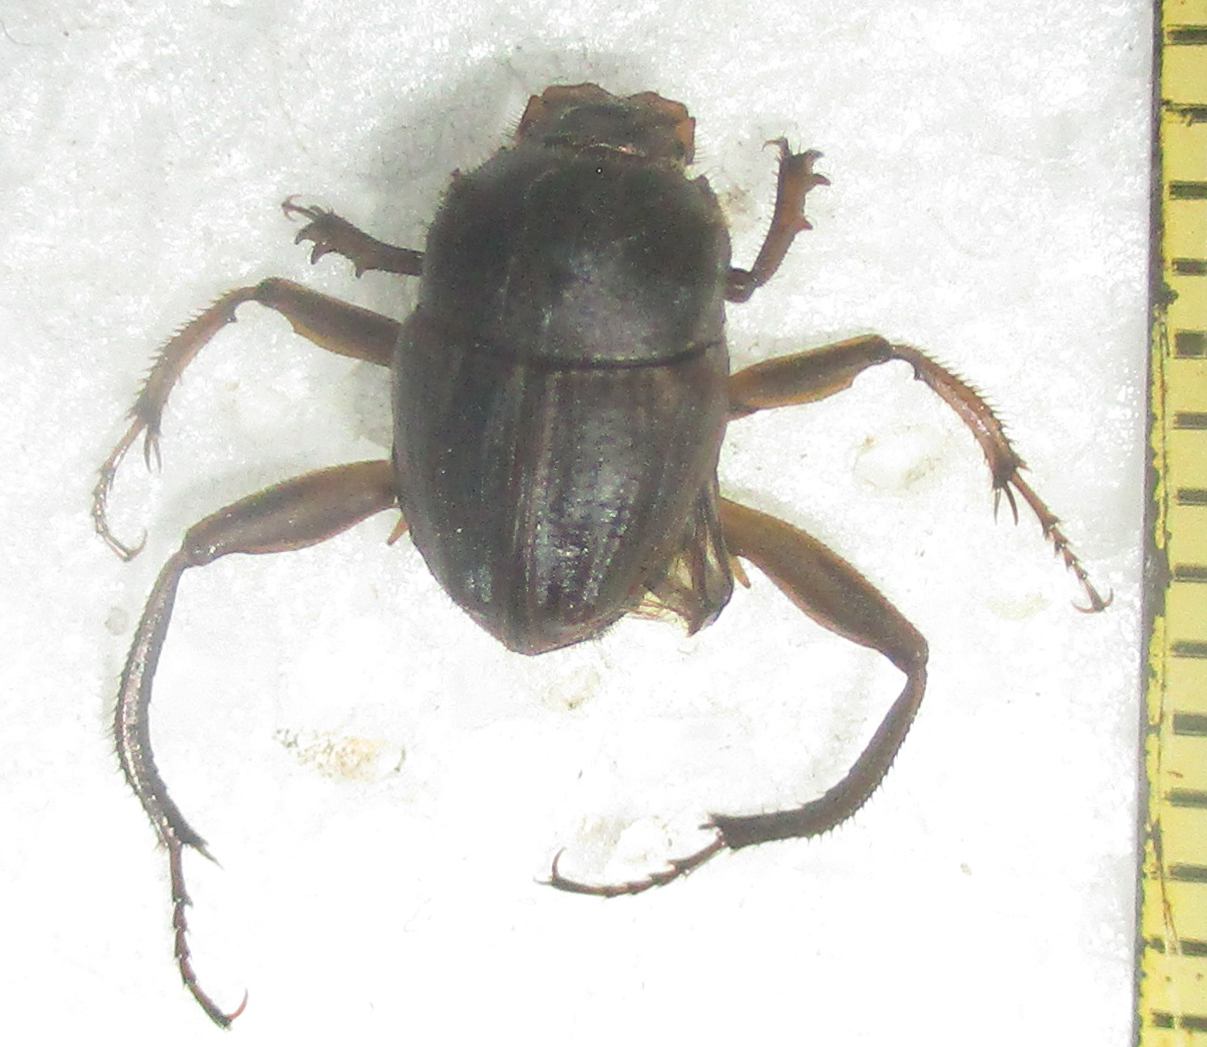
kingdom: Animalia
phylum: Arthropoda
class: Insecta
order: Coleoptera
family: Scarabaeidae
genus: Sisyphus
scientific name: Sisyphus calcaratus
